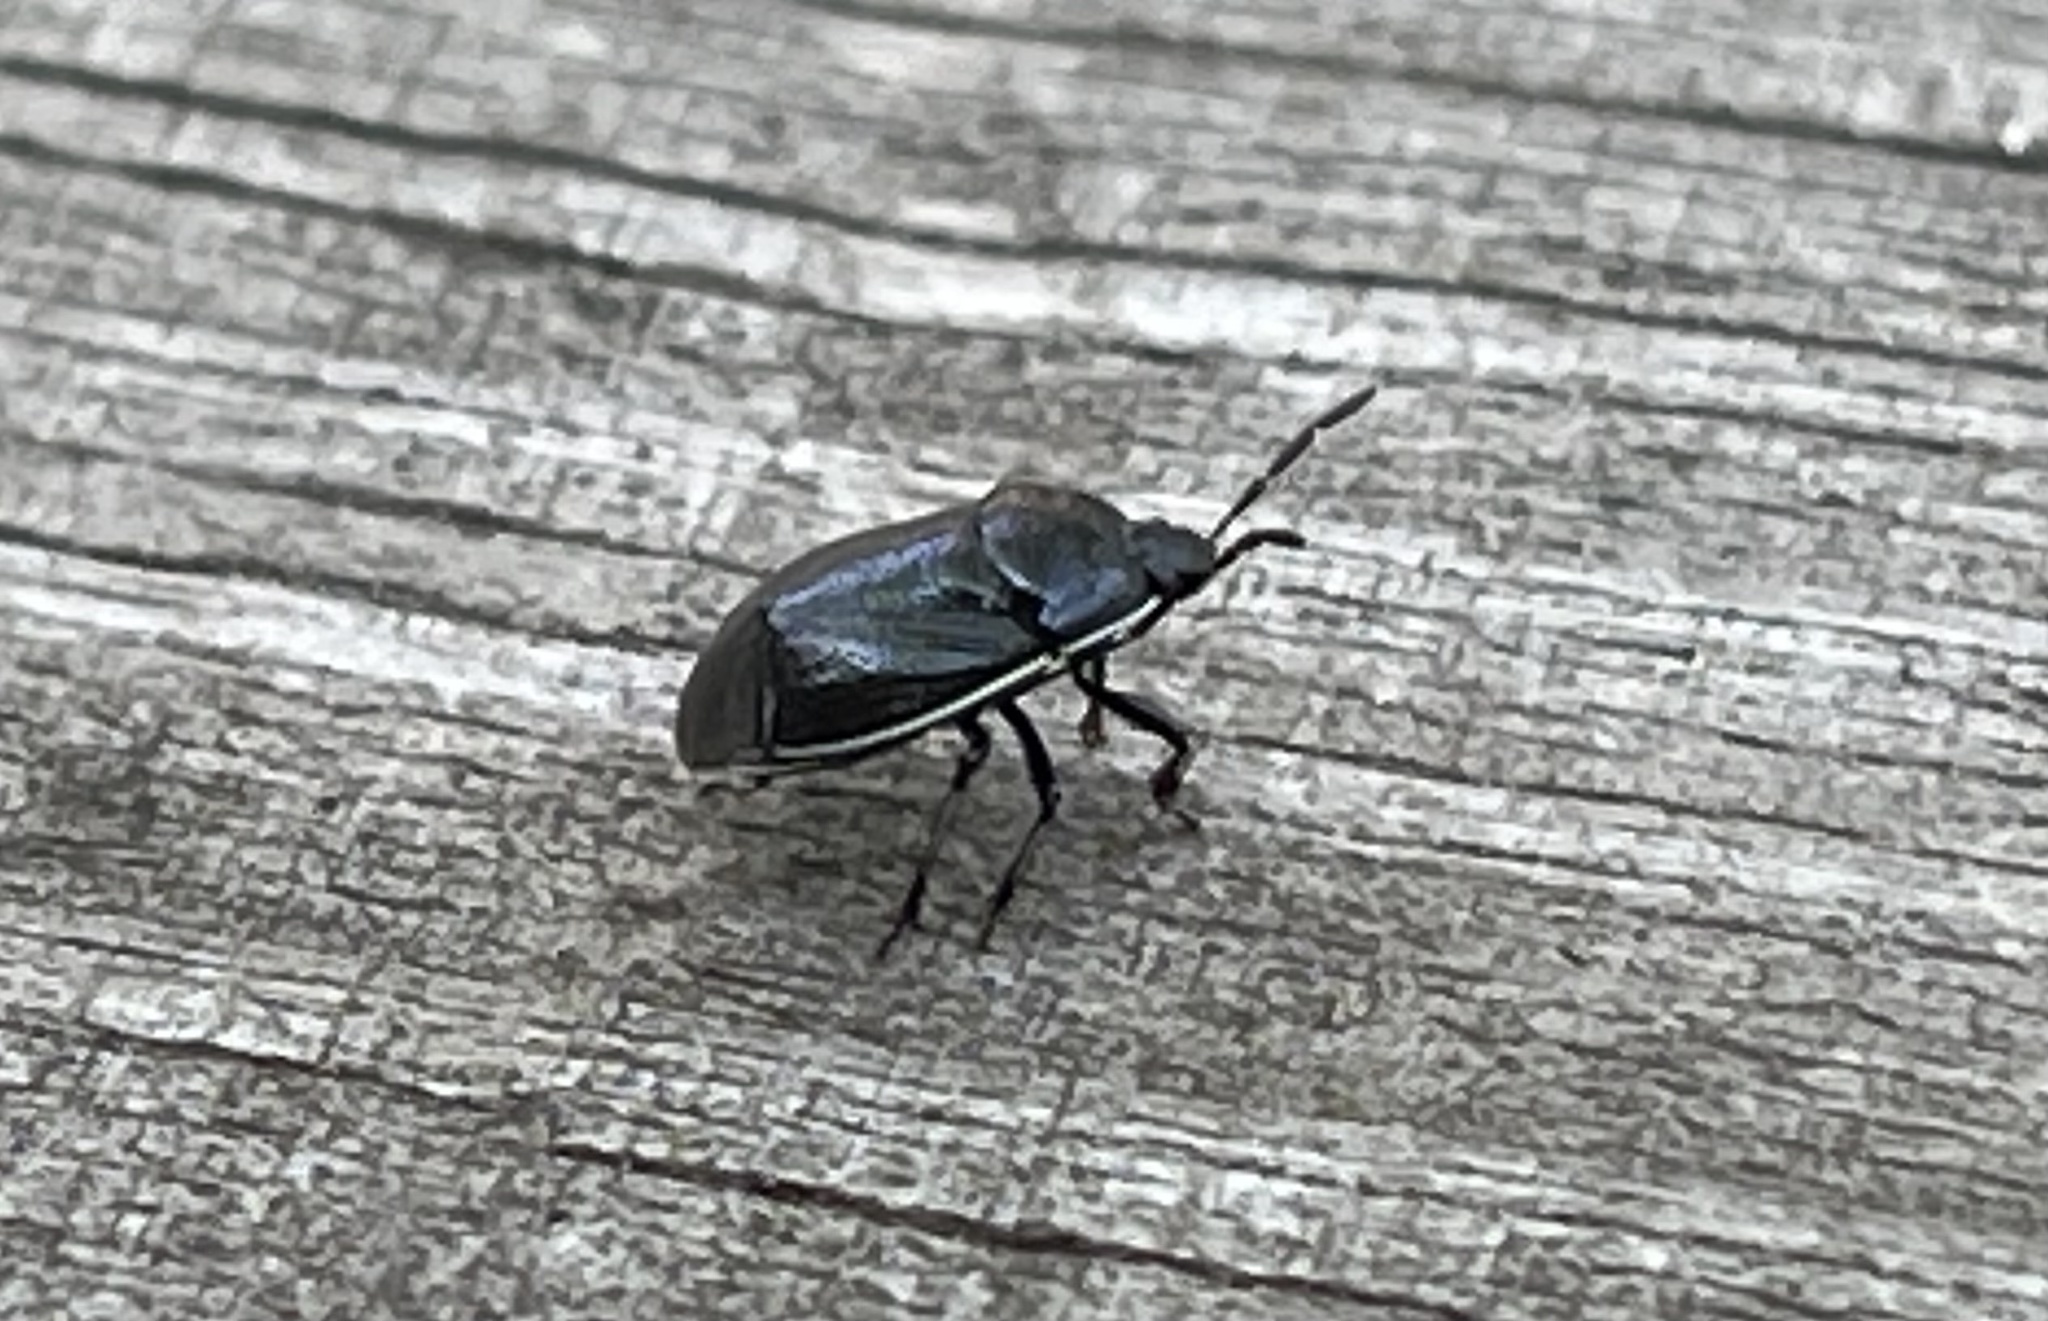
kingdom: Animalia
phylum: Arthropoda
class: Insecta
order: Hemiptera
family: Cydnidae
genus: Sehirus
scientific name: Sehirus cinctus
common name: White-margined burrower bug
